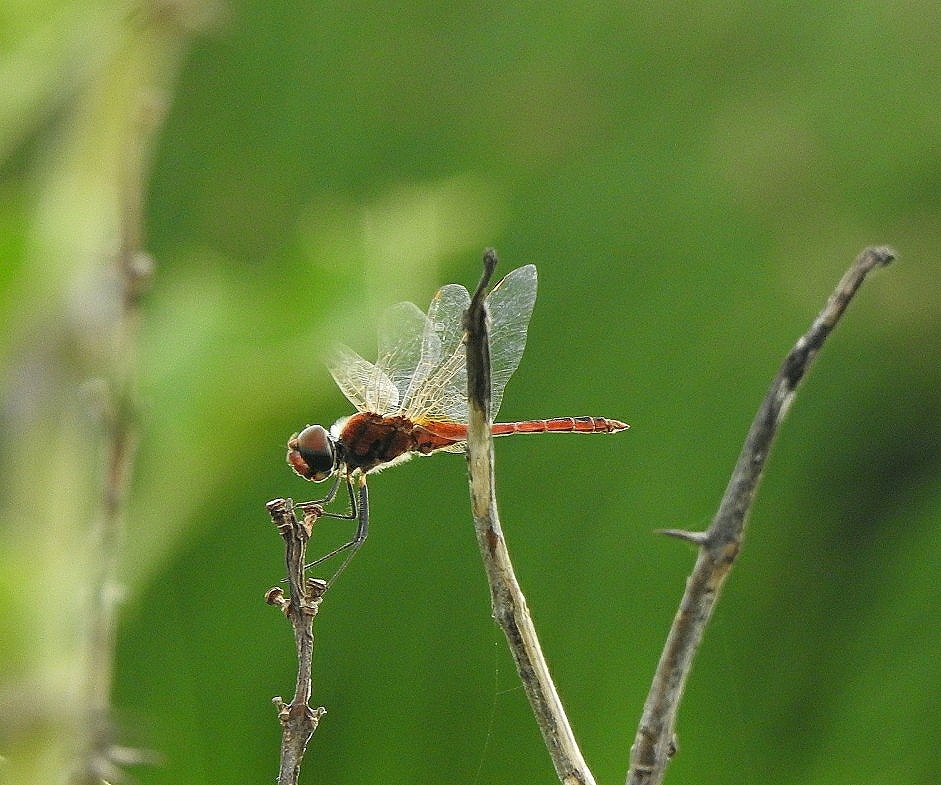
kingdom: Animalia
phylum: Arthropoda
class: Insecta
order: Odonata
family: Libellulidae
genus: Macrodiplax
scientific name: Macrodiplax cora
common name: Coastal glider
